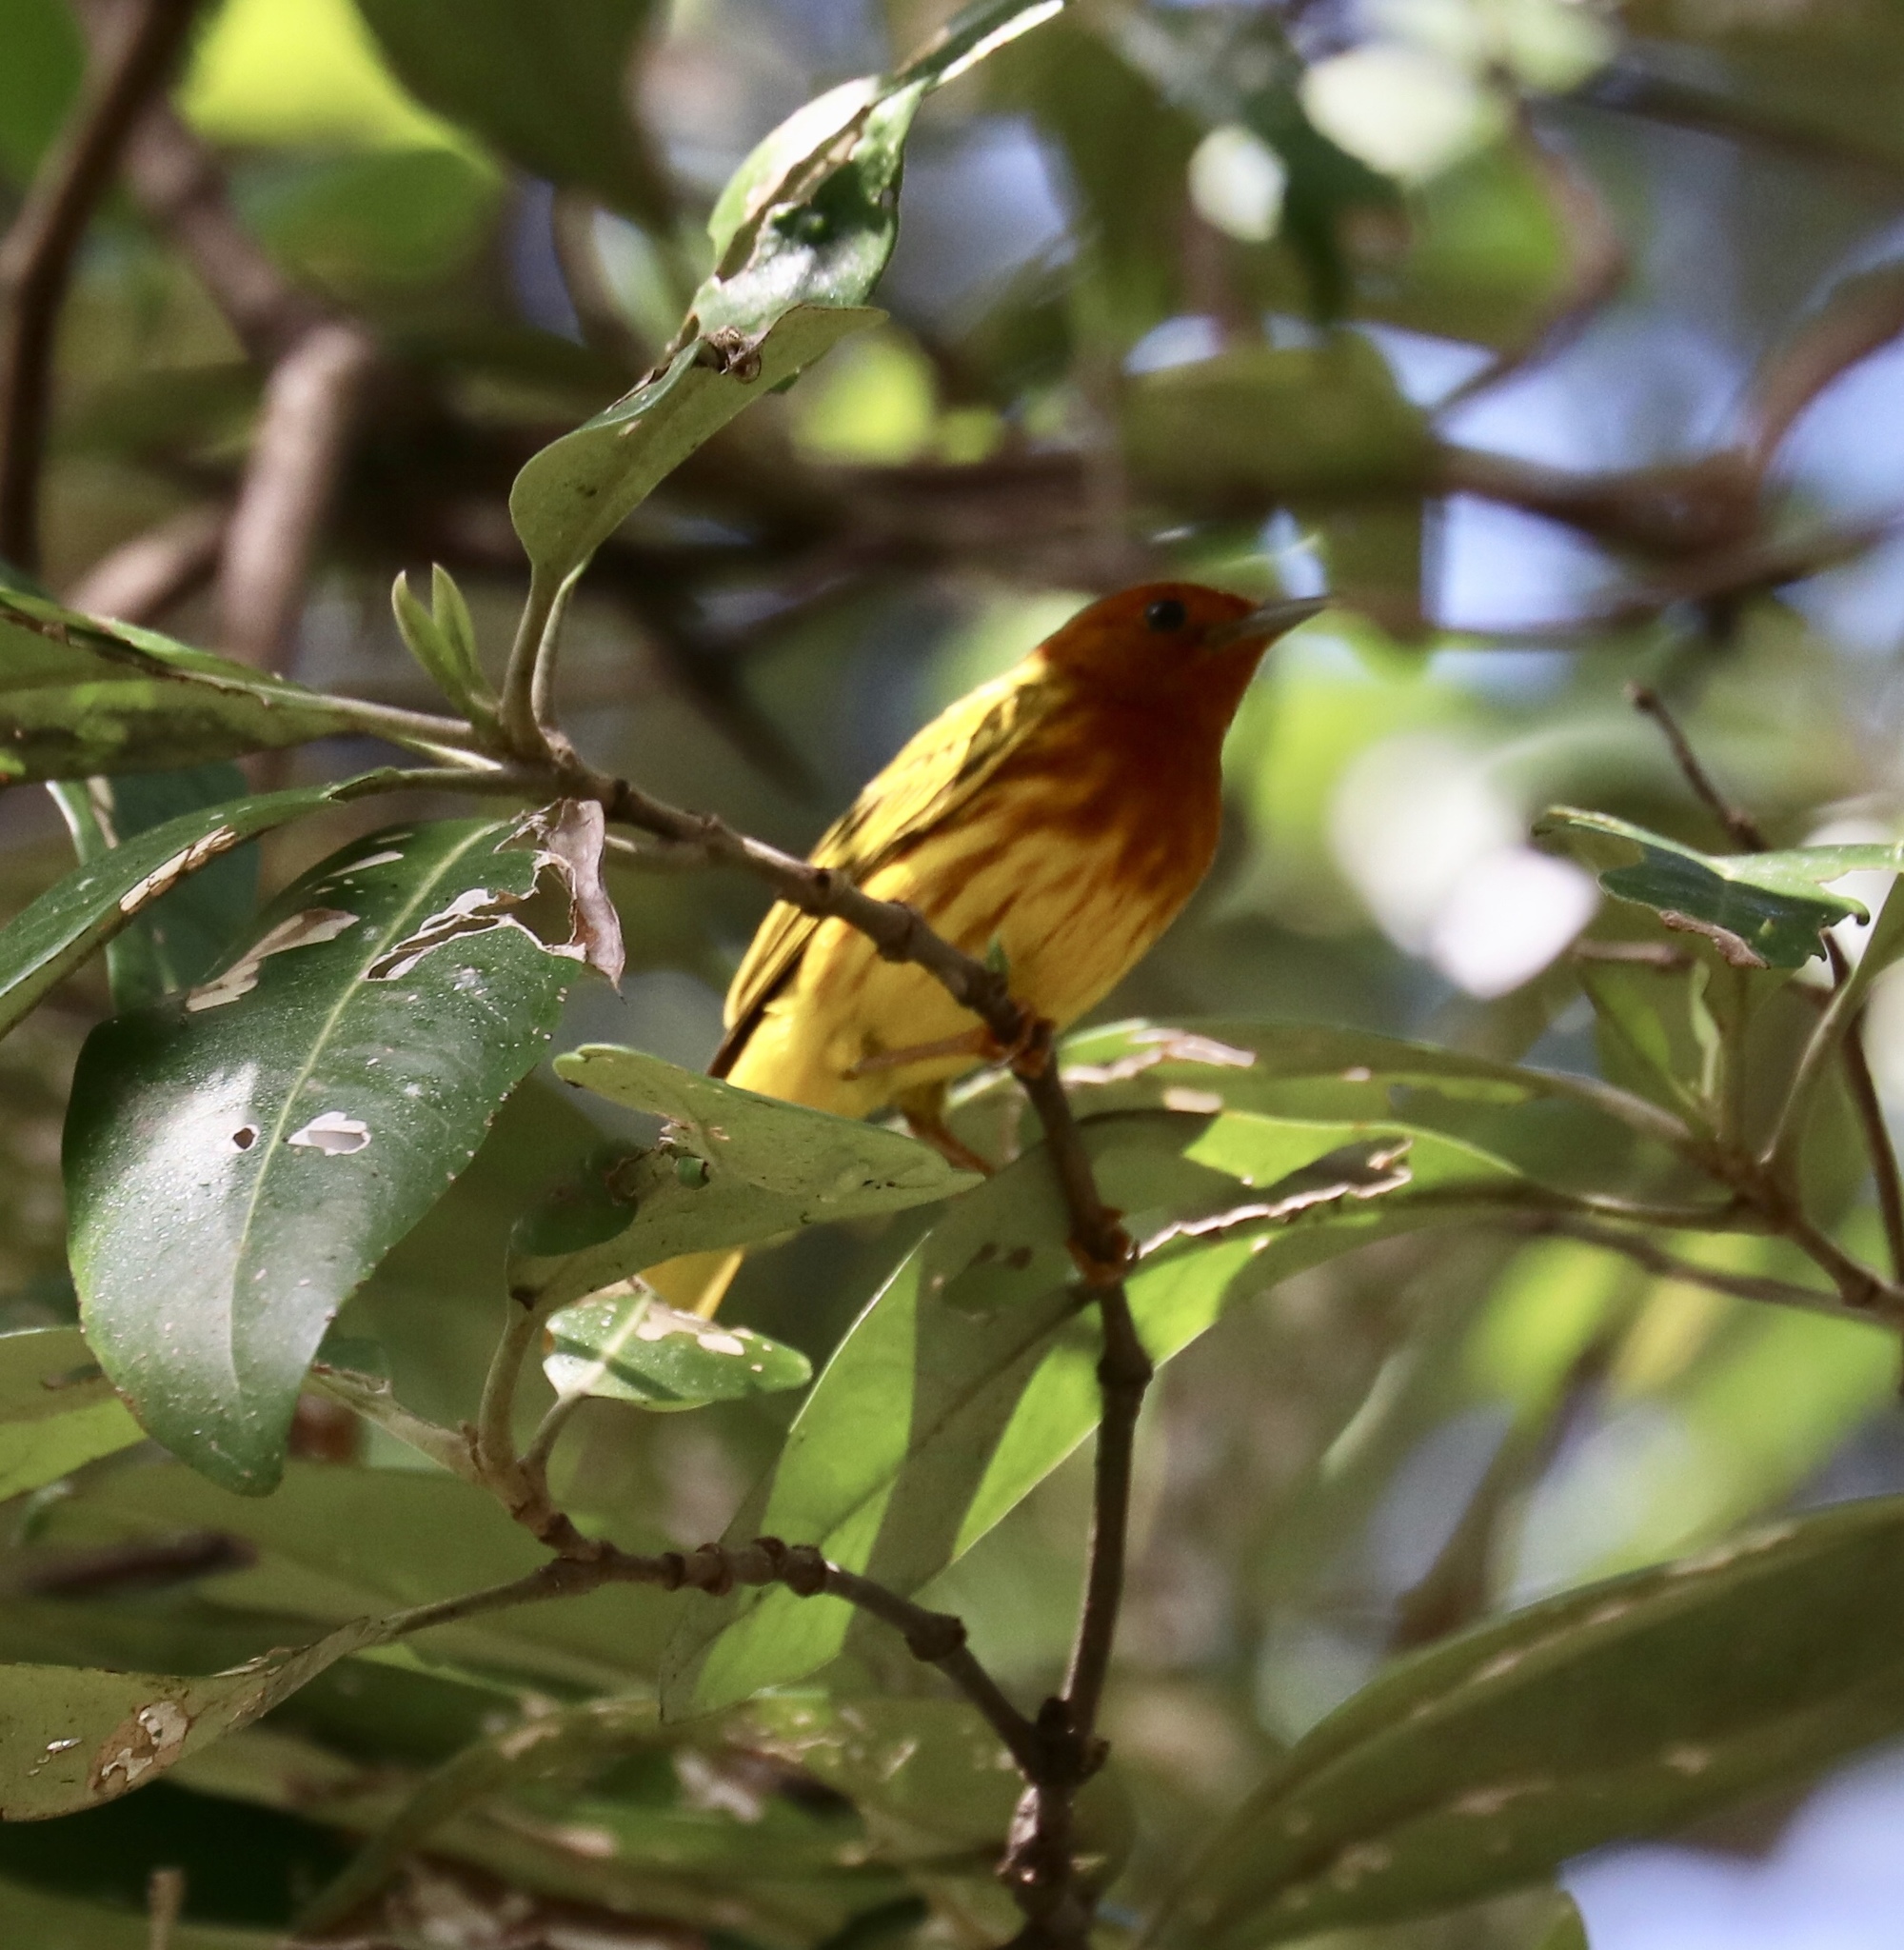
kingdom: Animalia
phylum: Chordata
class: Aves
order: Passeriformes
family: Parulidae
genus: Setophaga
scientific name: Setophaga petechia
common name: Yellow warbler
